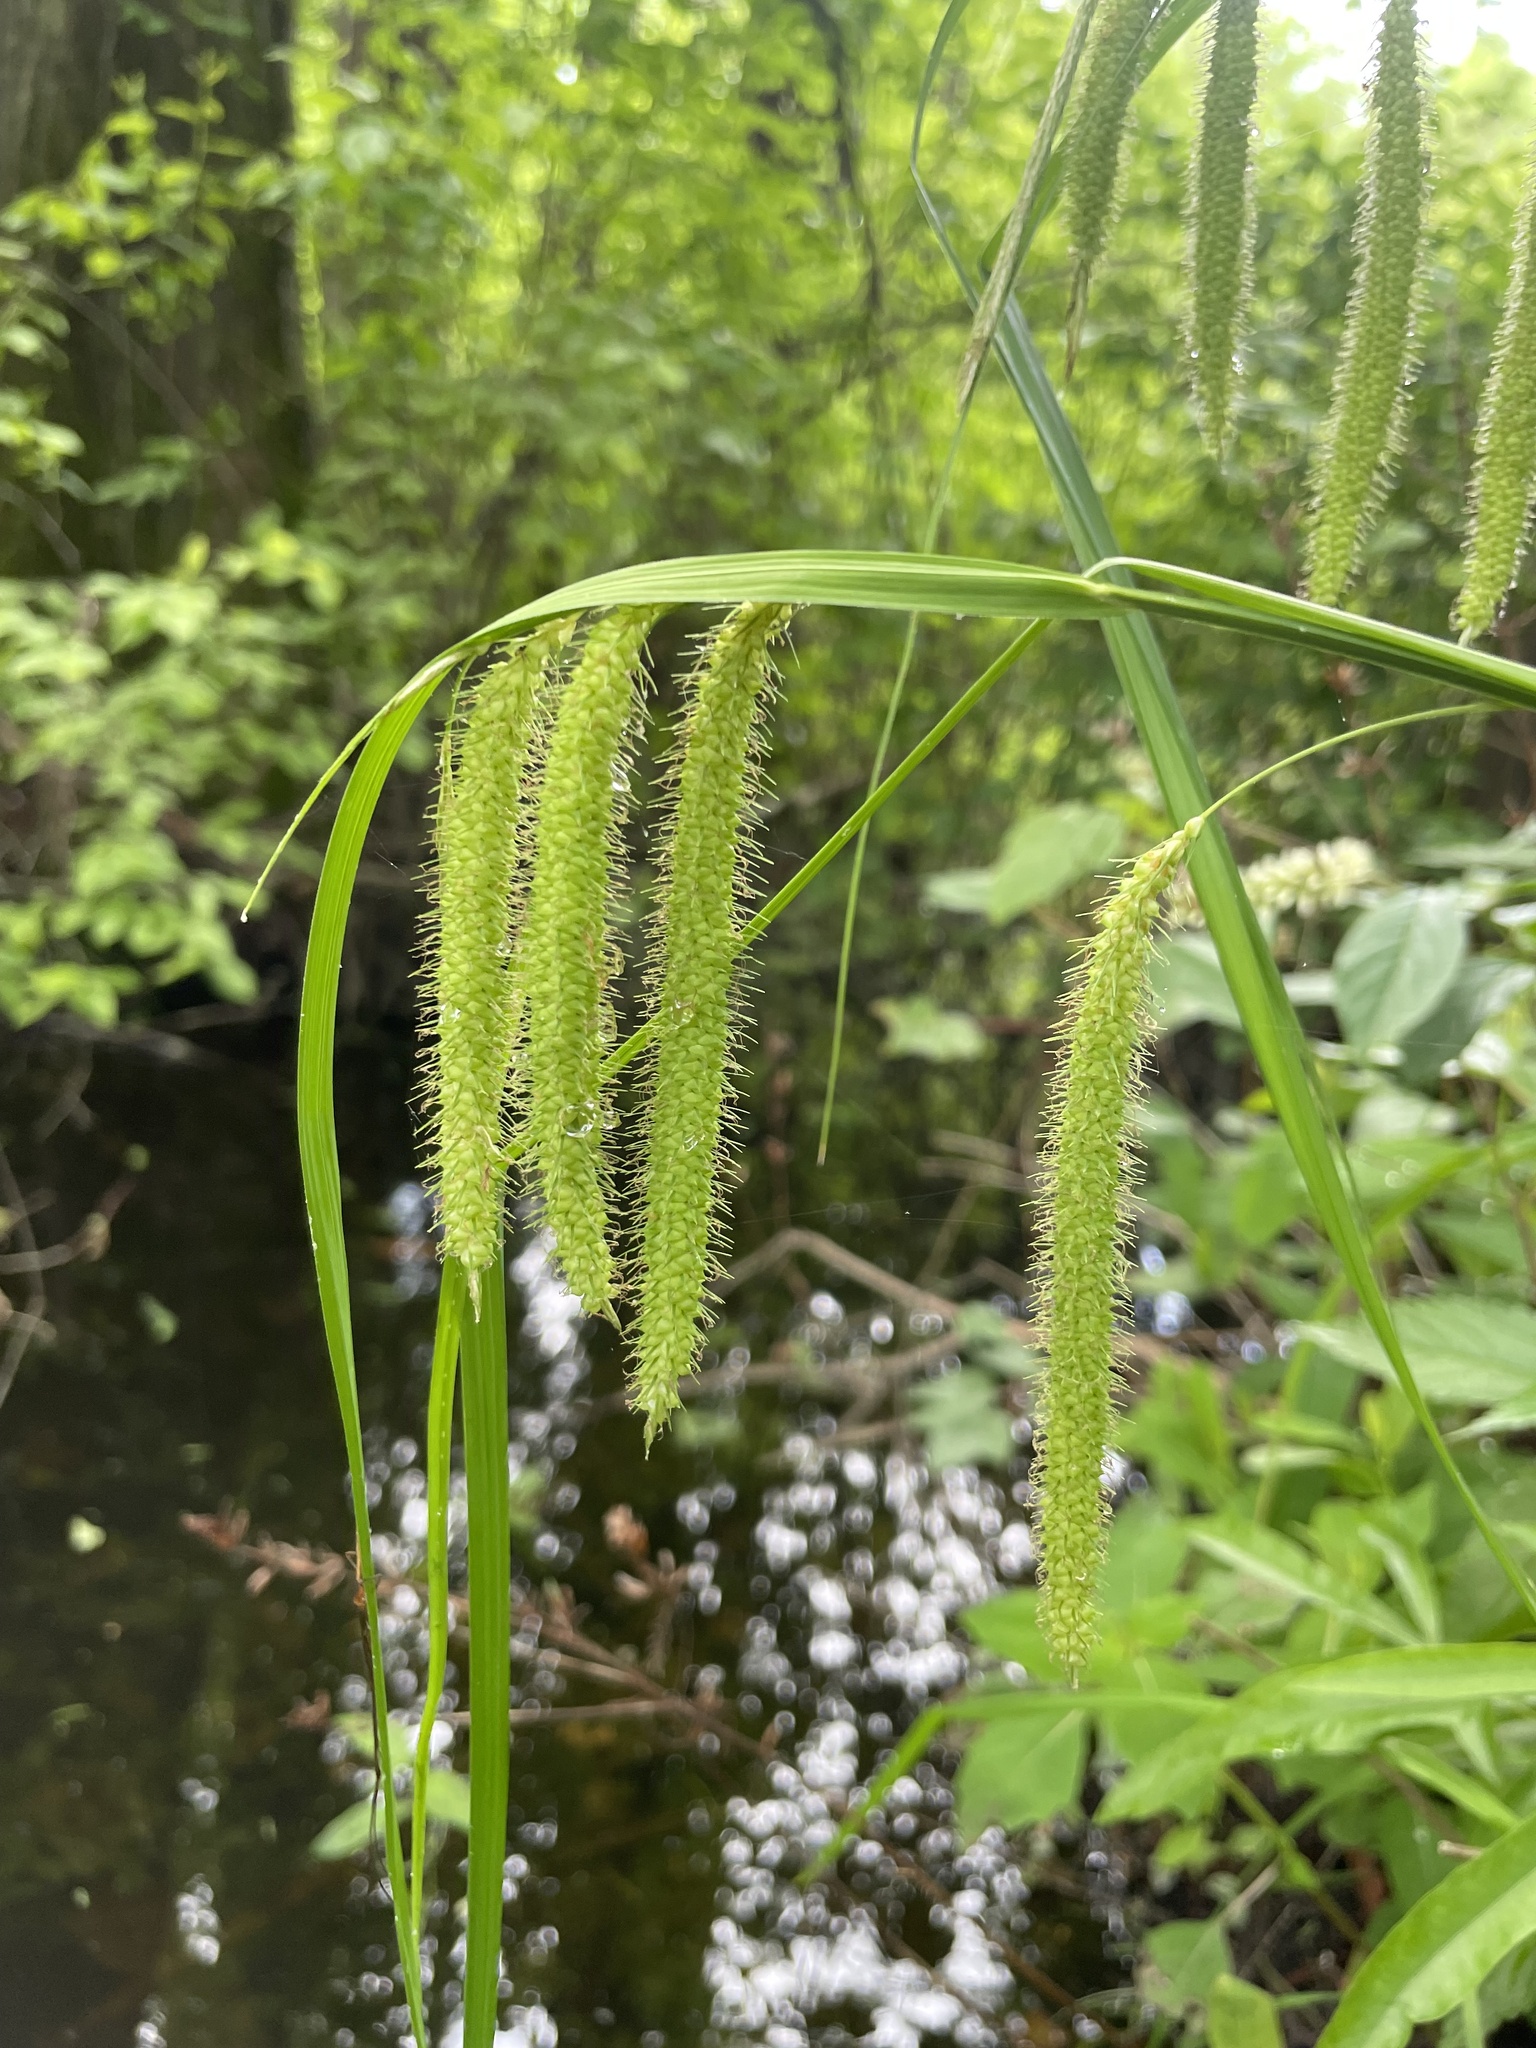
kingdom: Plantae
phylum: Tracheophyta
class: Liliopsida
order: Poales
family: Cyperaceae
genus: Carex
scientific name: Carex crinita
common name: Fringed sedge
